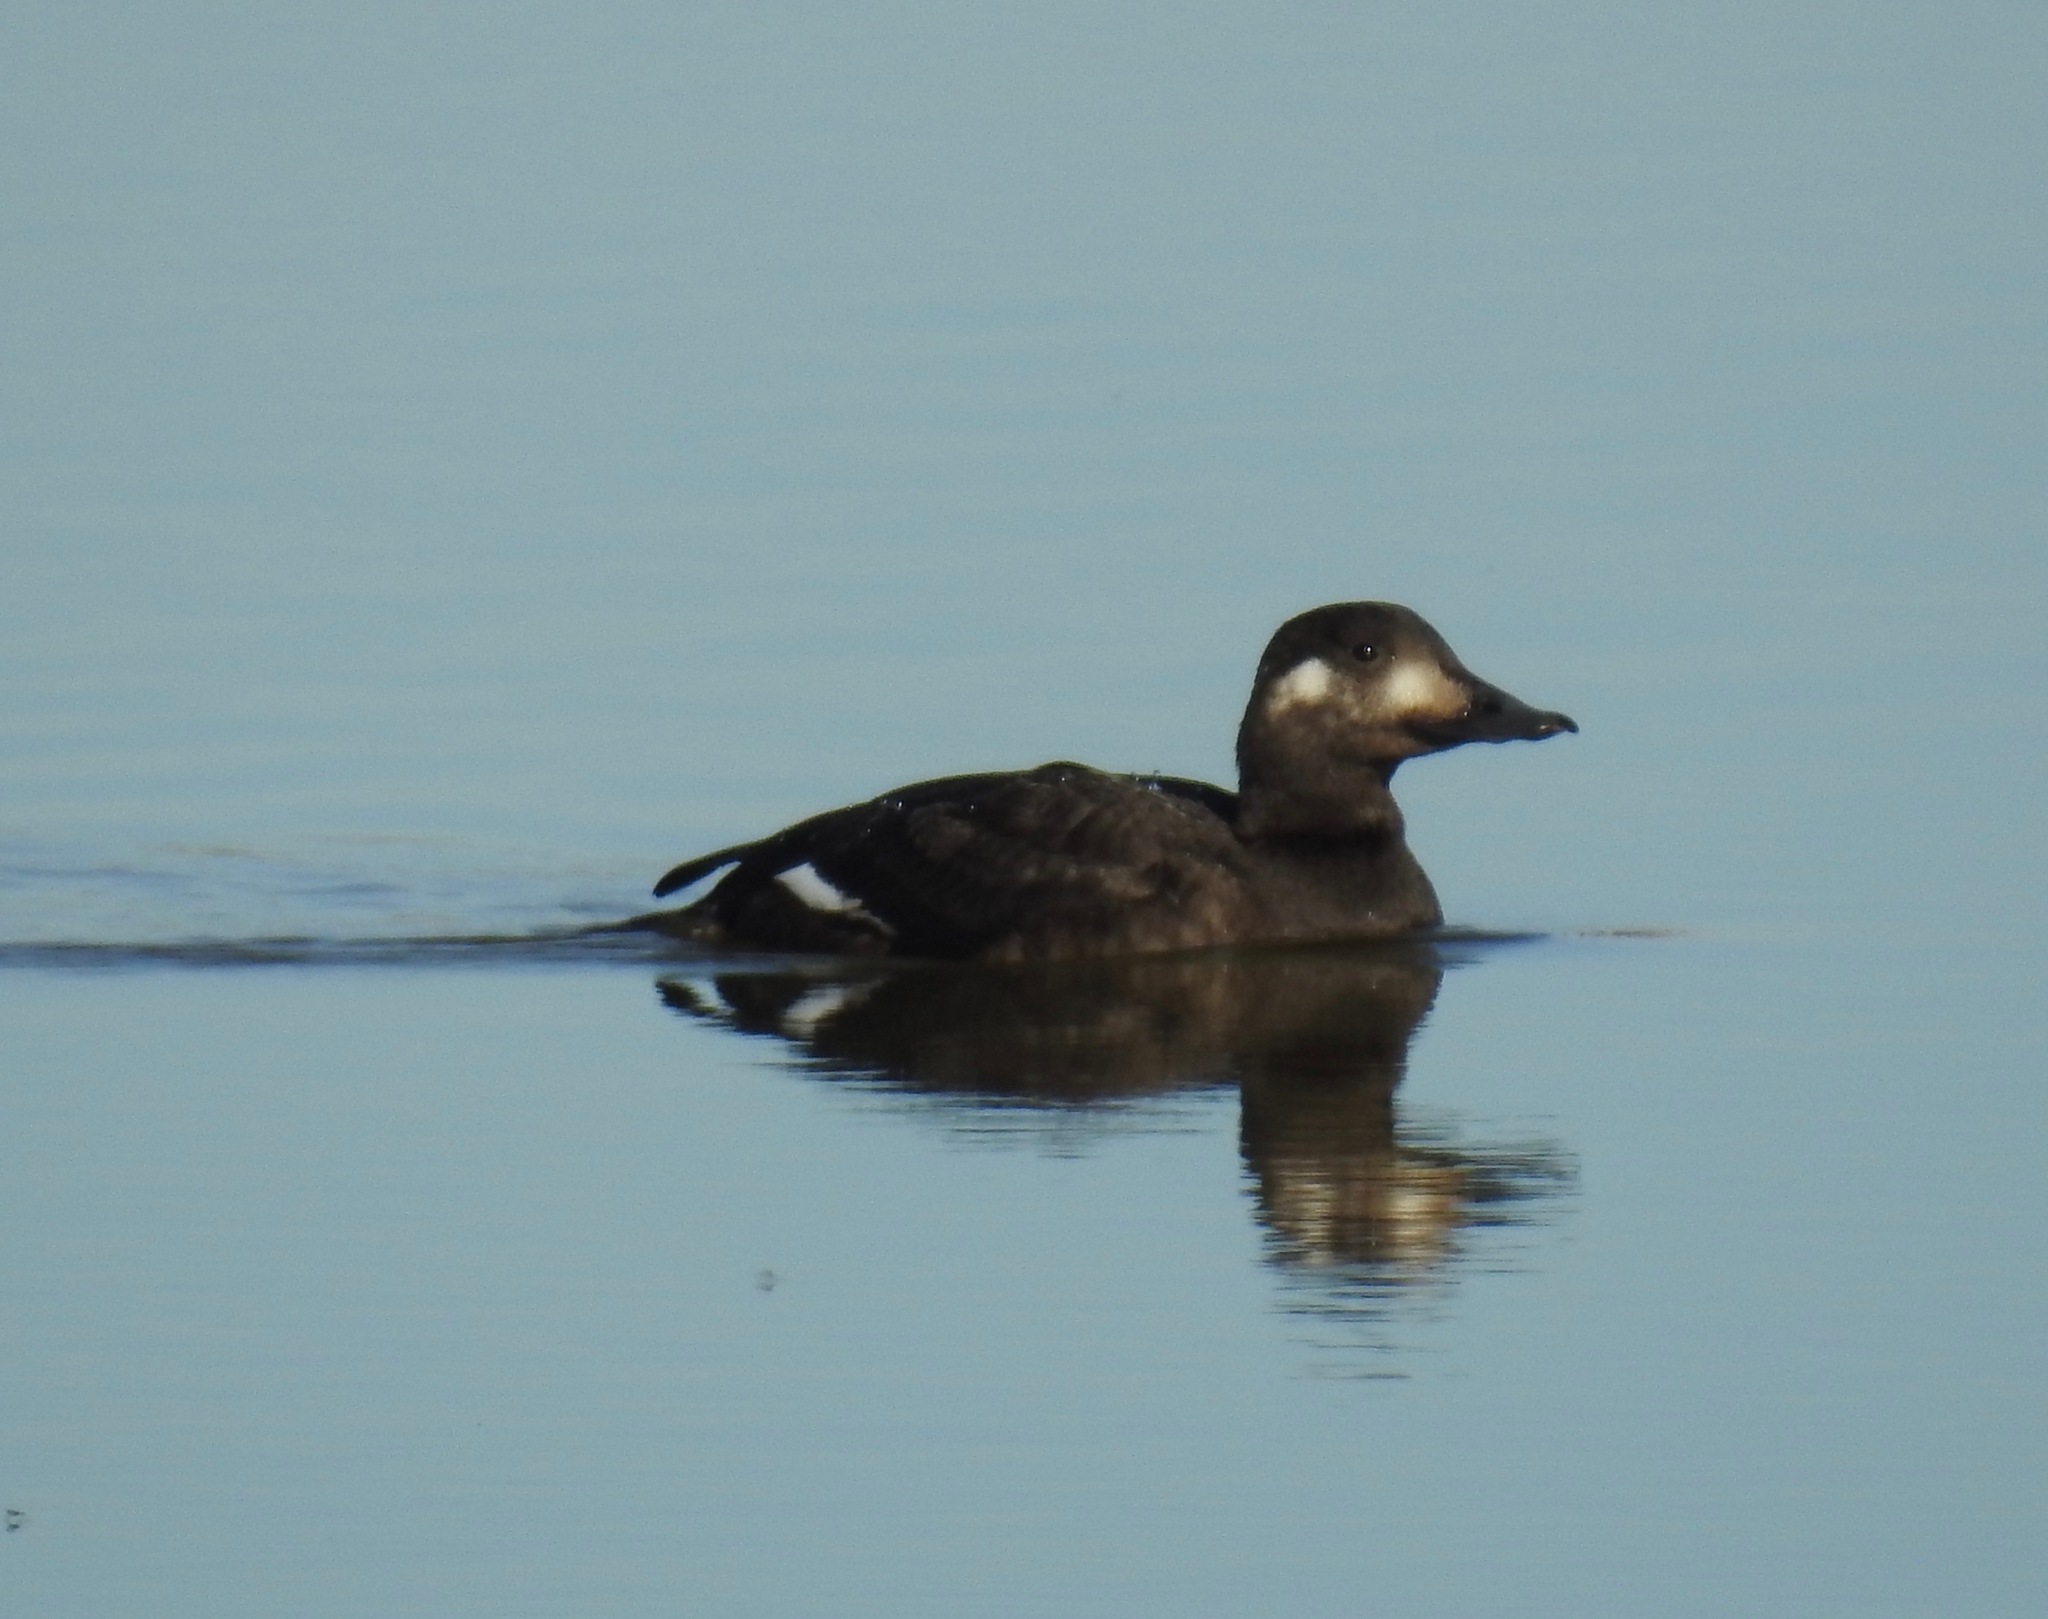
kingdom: Animalia
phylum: Chordata
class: Aves
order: Anseriformes
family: Anatidae
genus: Melanitta
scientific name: Melanitta deglandi
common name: White-winged scoter
